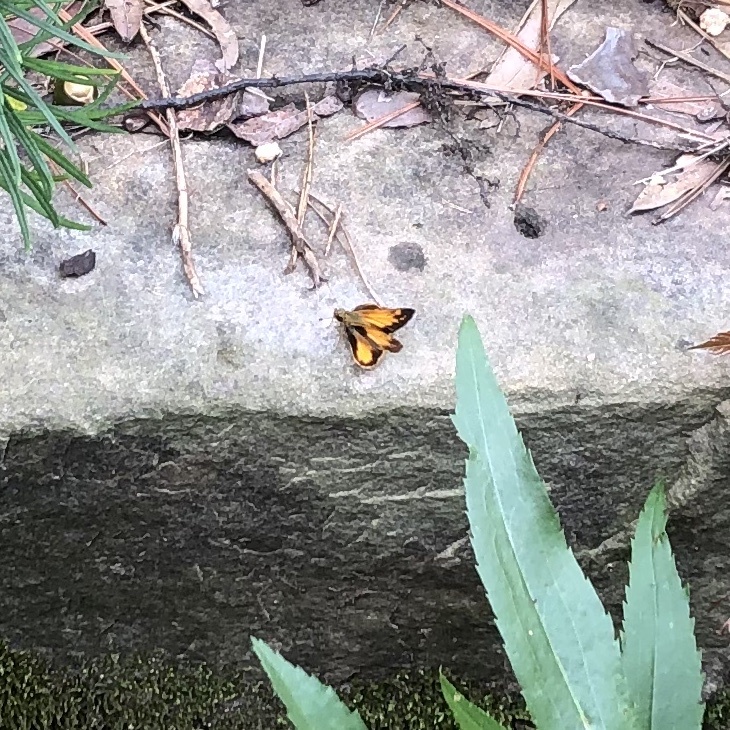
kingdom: Animalia
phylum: Arthropoda
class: Insecta
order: Lepidoptera
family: Hesperiidae
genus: Lon
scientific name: Lon zabulon
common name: Zabulon skipper
